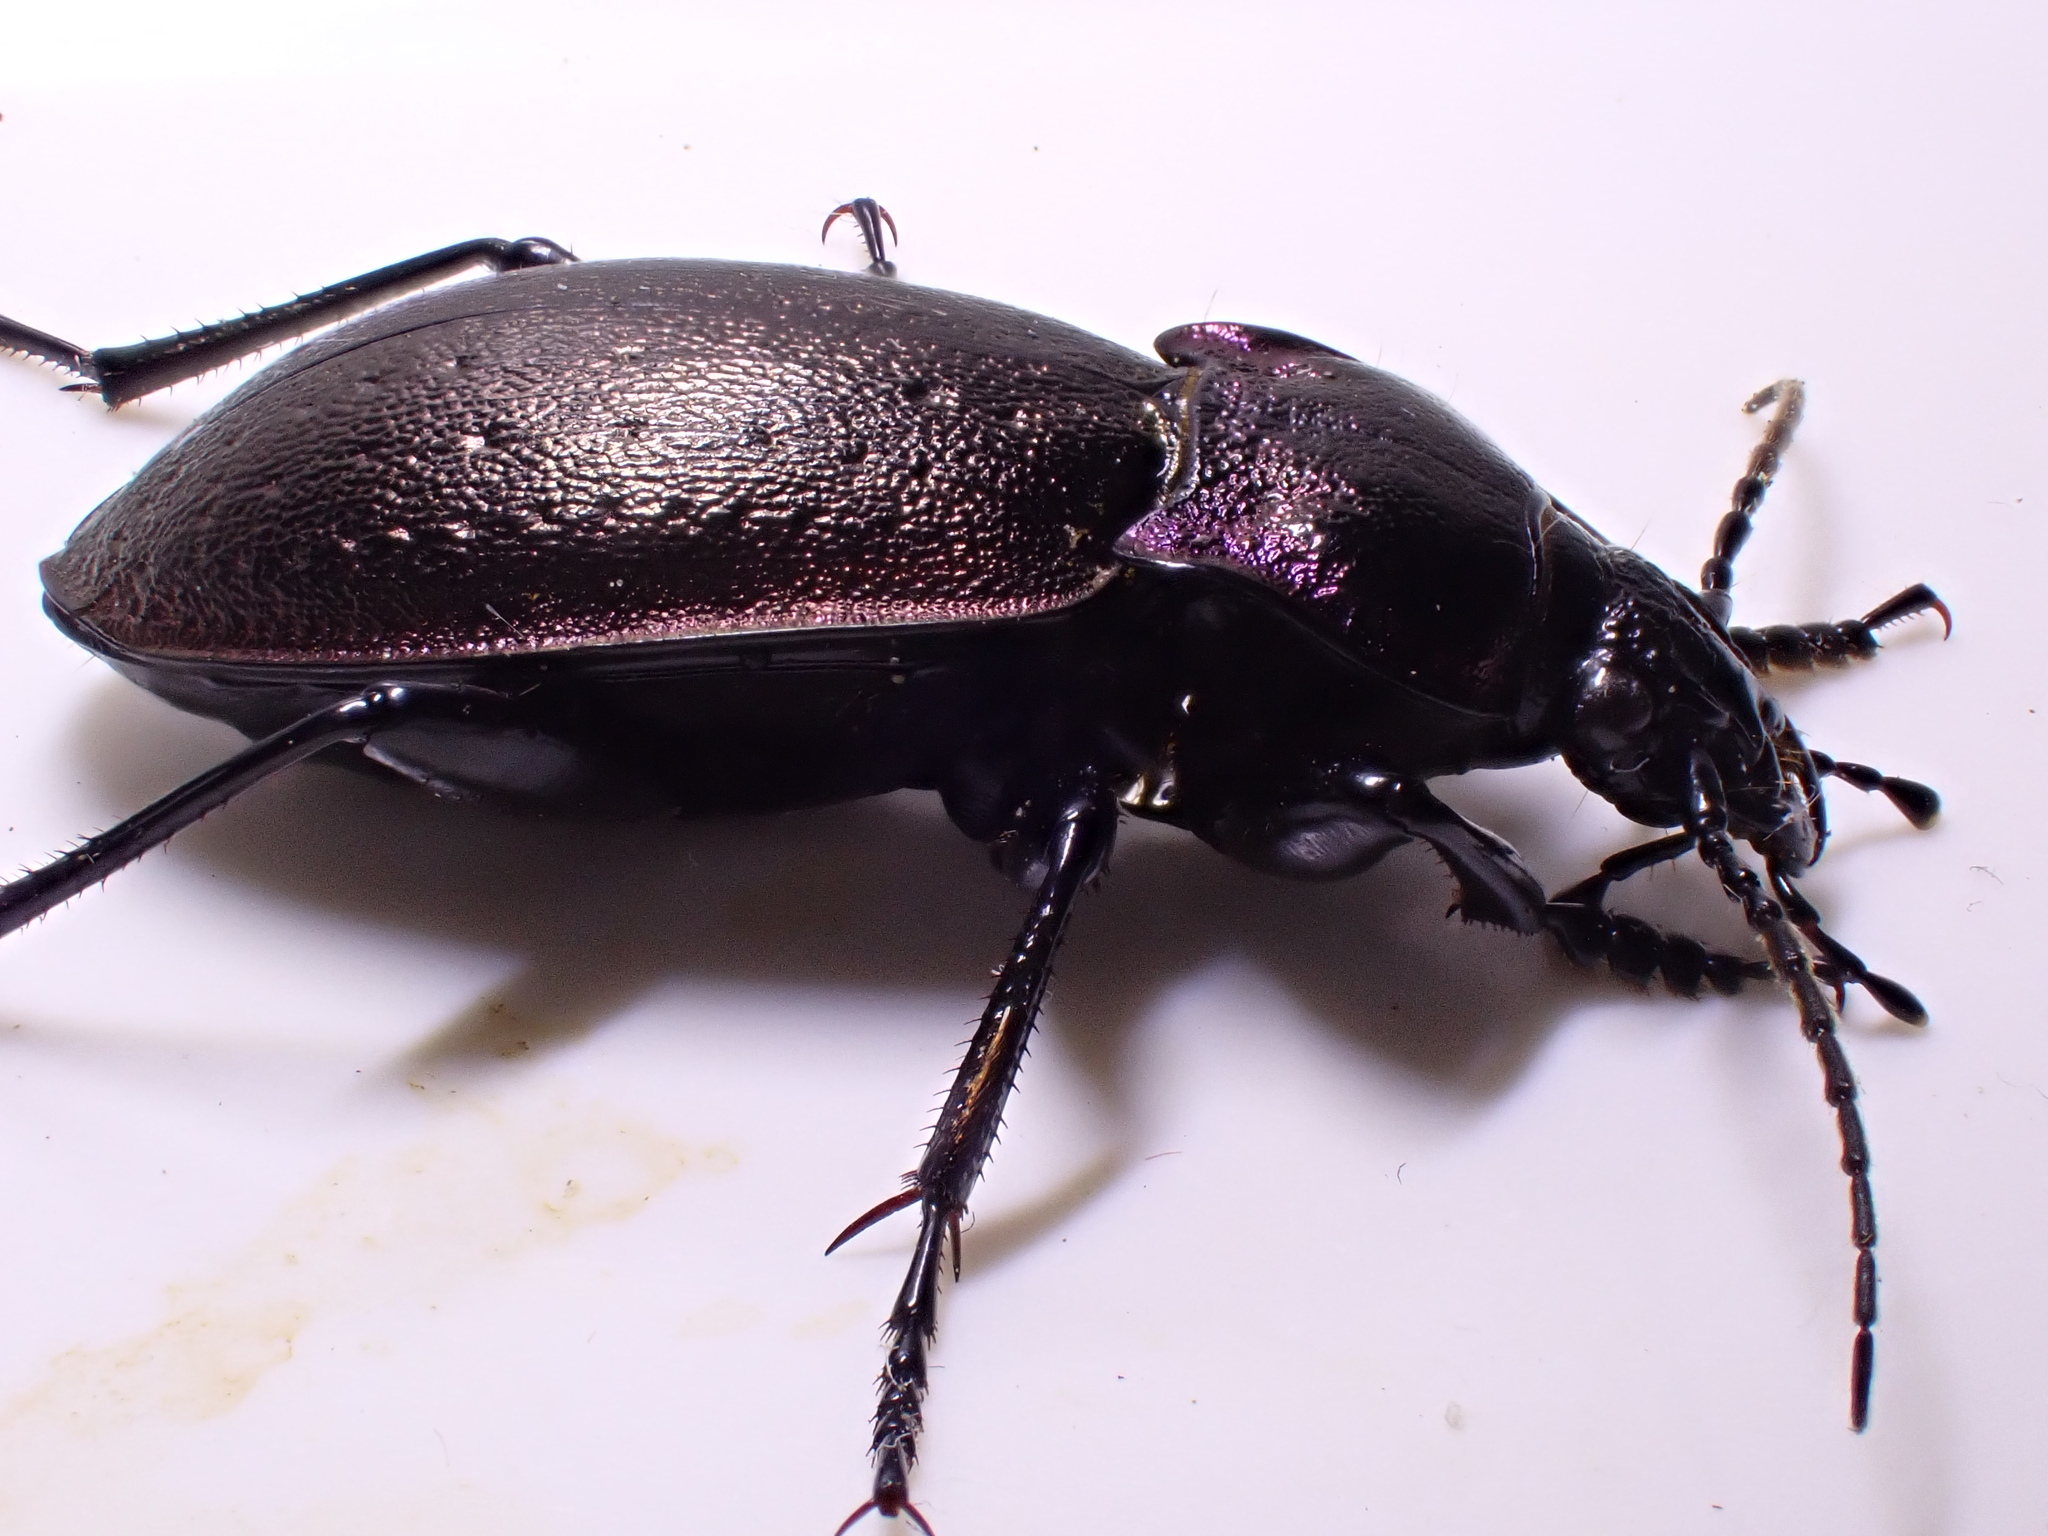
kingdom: Animalia
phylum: Arthropoda
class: Insecta
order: Coleoptera
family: Carabidae
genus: Carabus
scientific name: Carabus nemoralis
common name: European ground beetle
